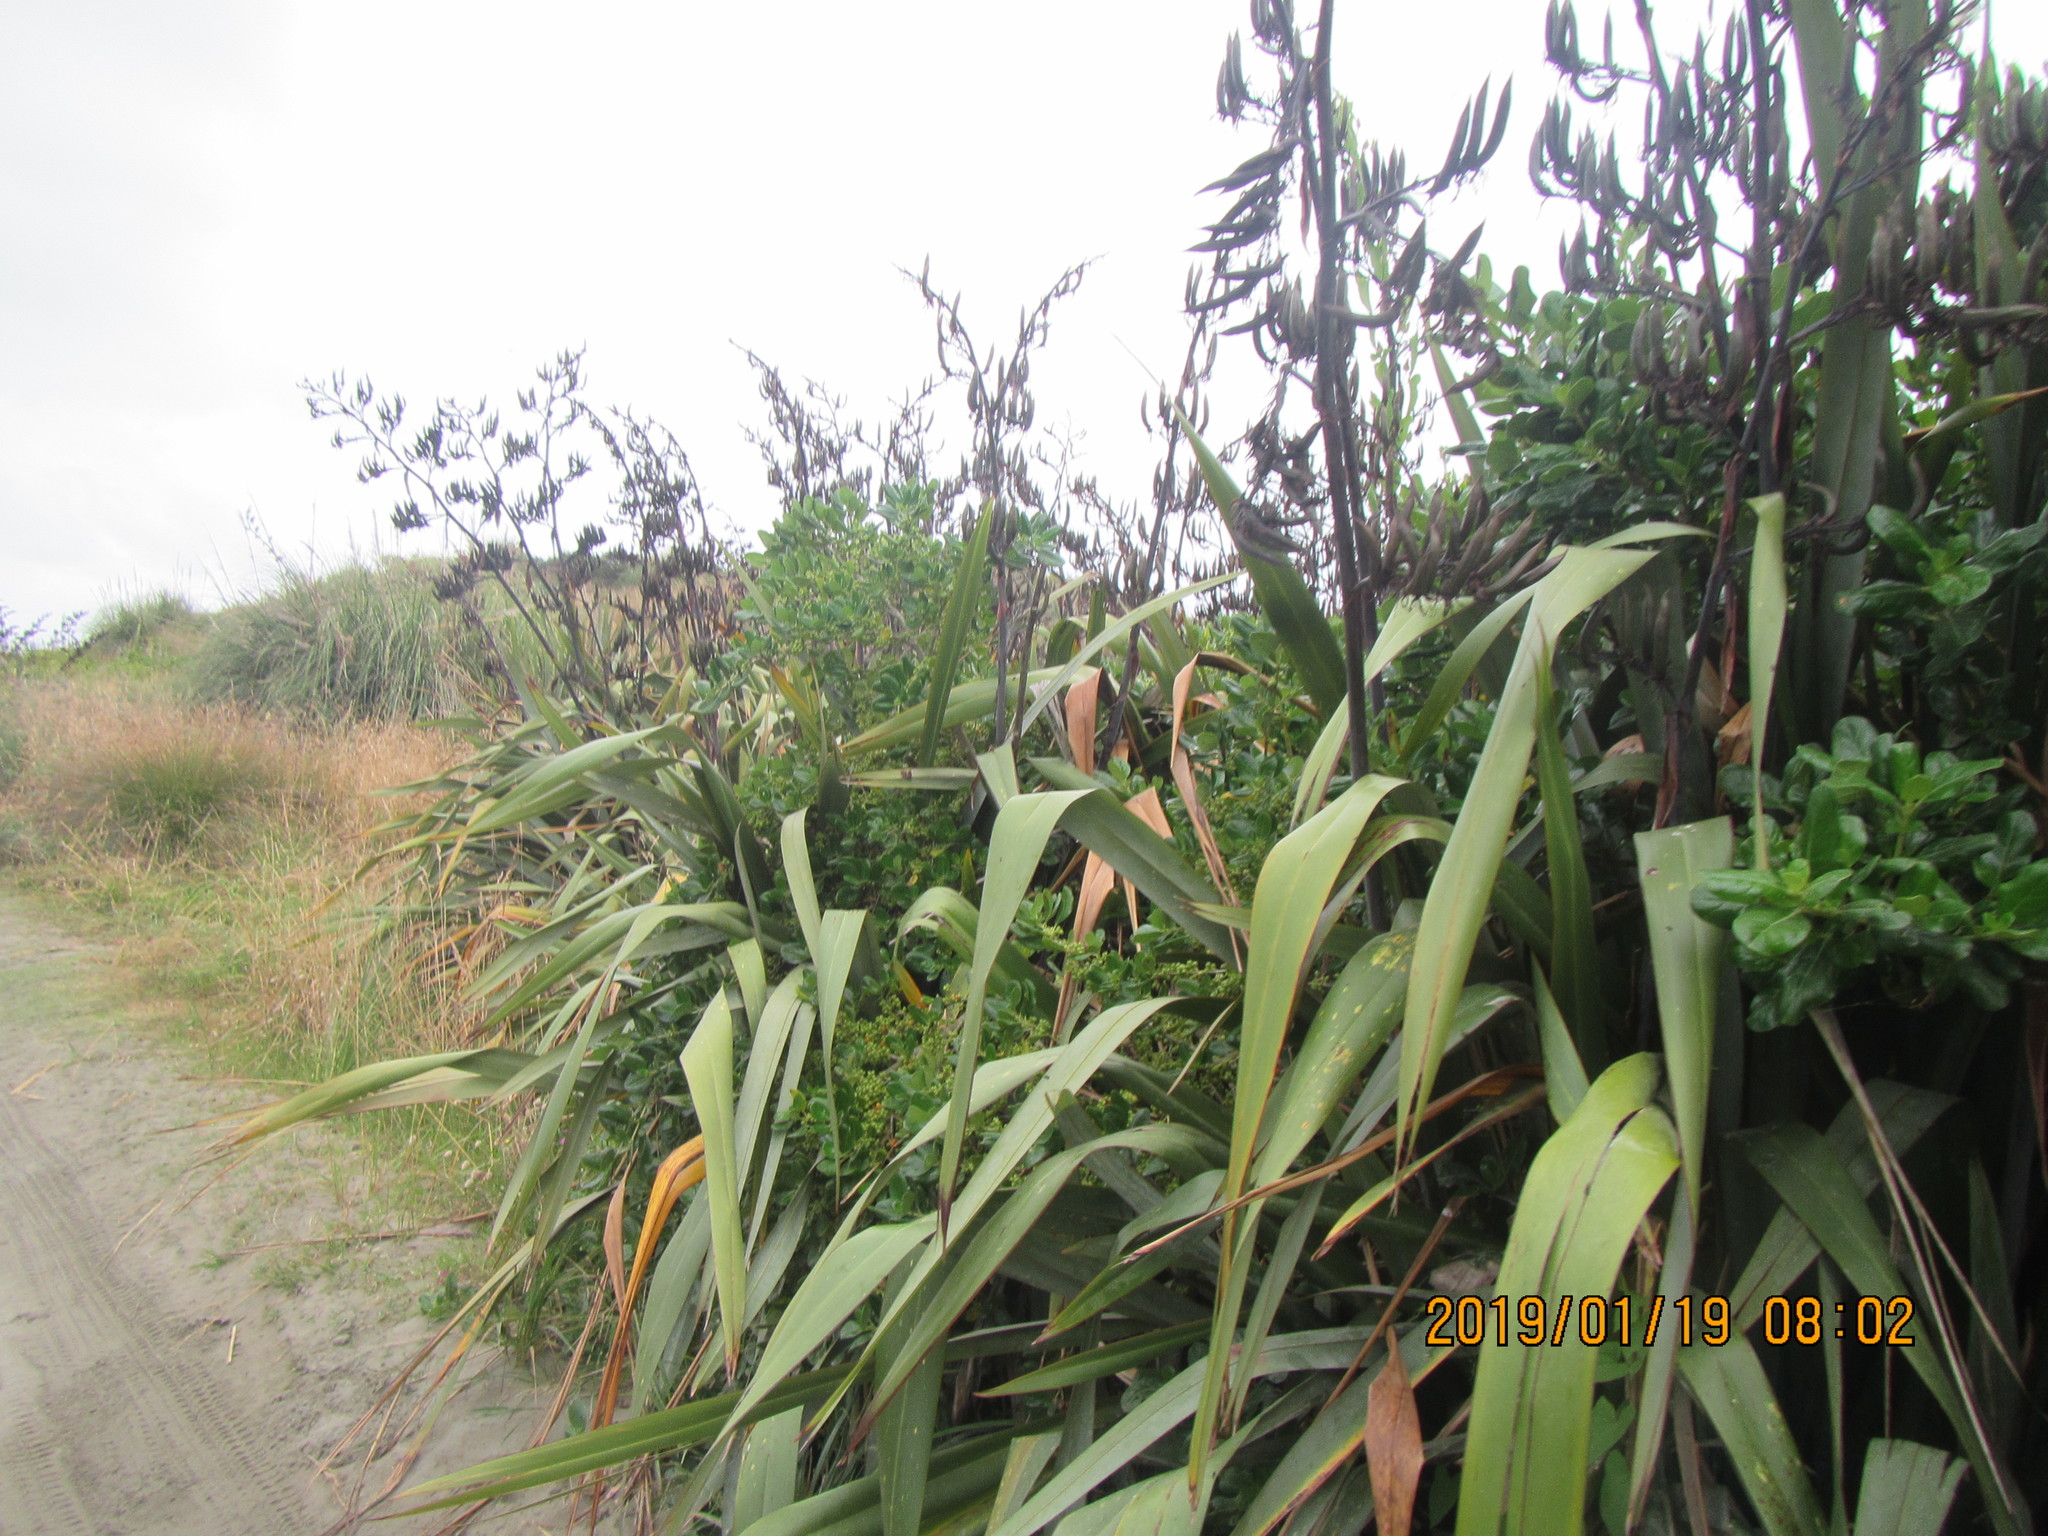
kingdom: Plantae
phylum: Tracheophyta
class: Magnoliopsida
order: Gentianales
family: Rubiaceae
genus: Coprosma
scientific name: Coprosma repens
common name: Tree bedstraw
